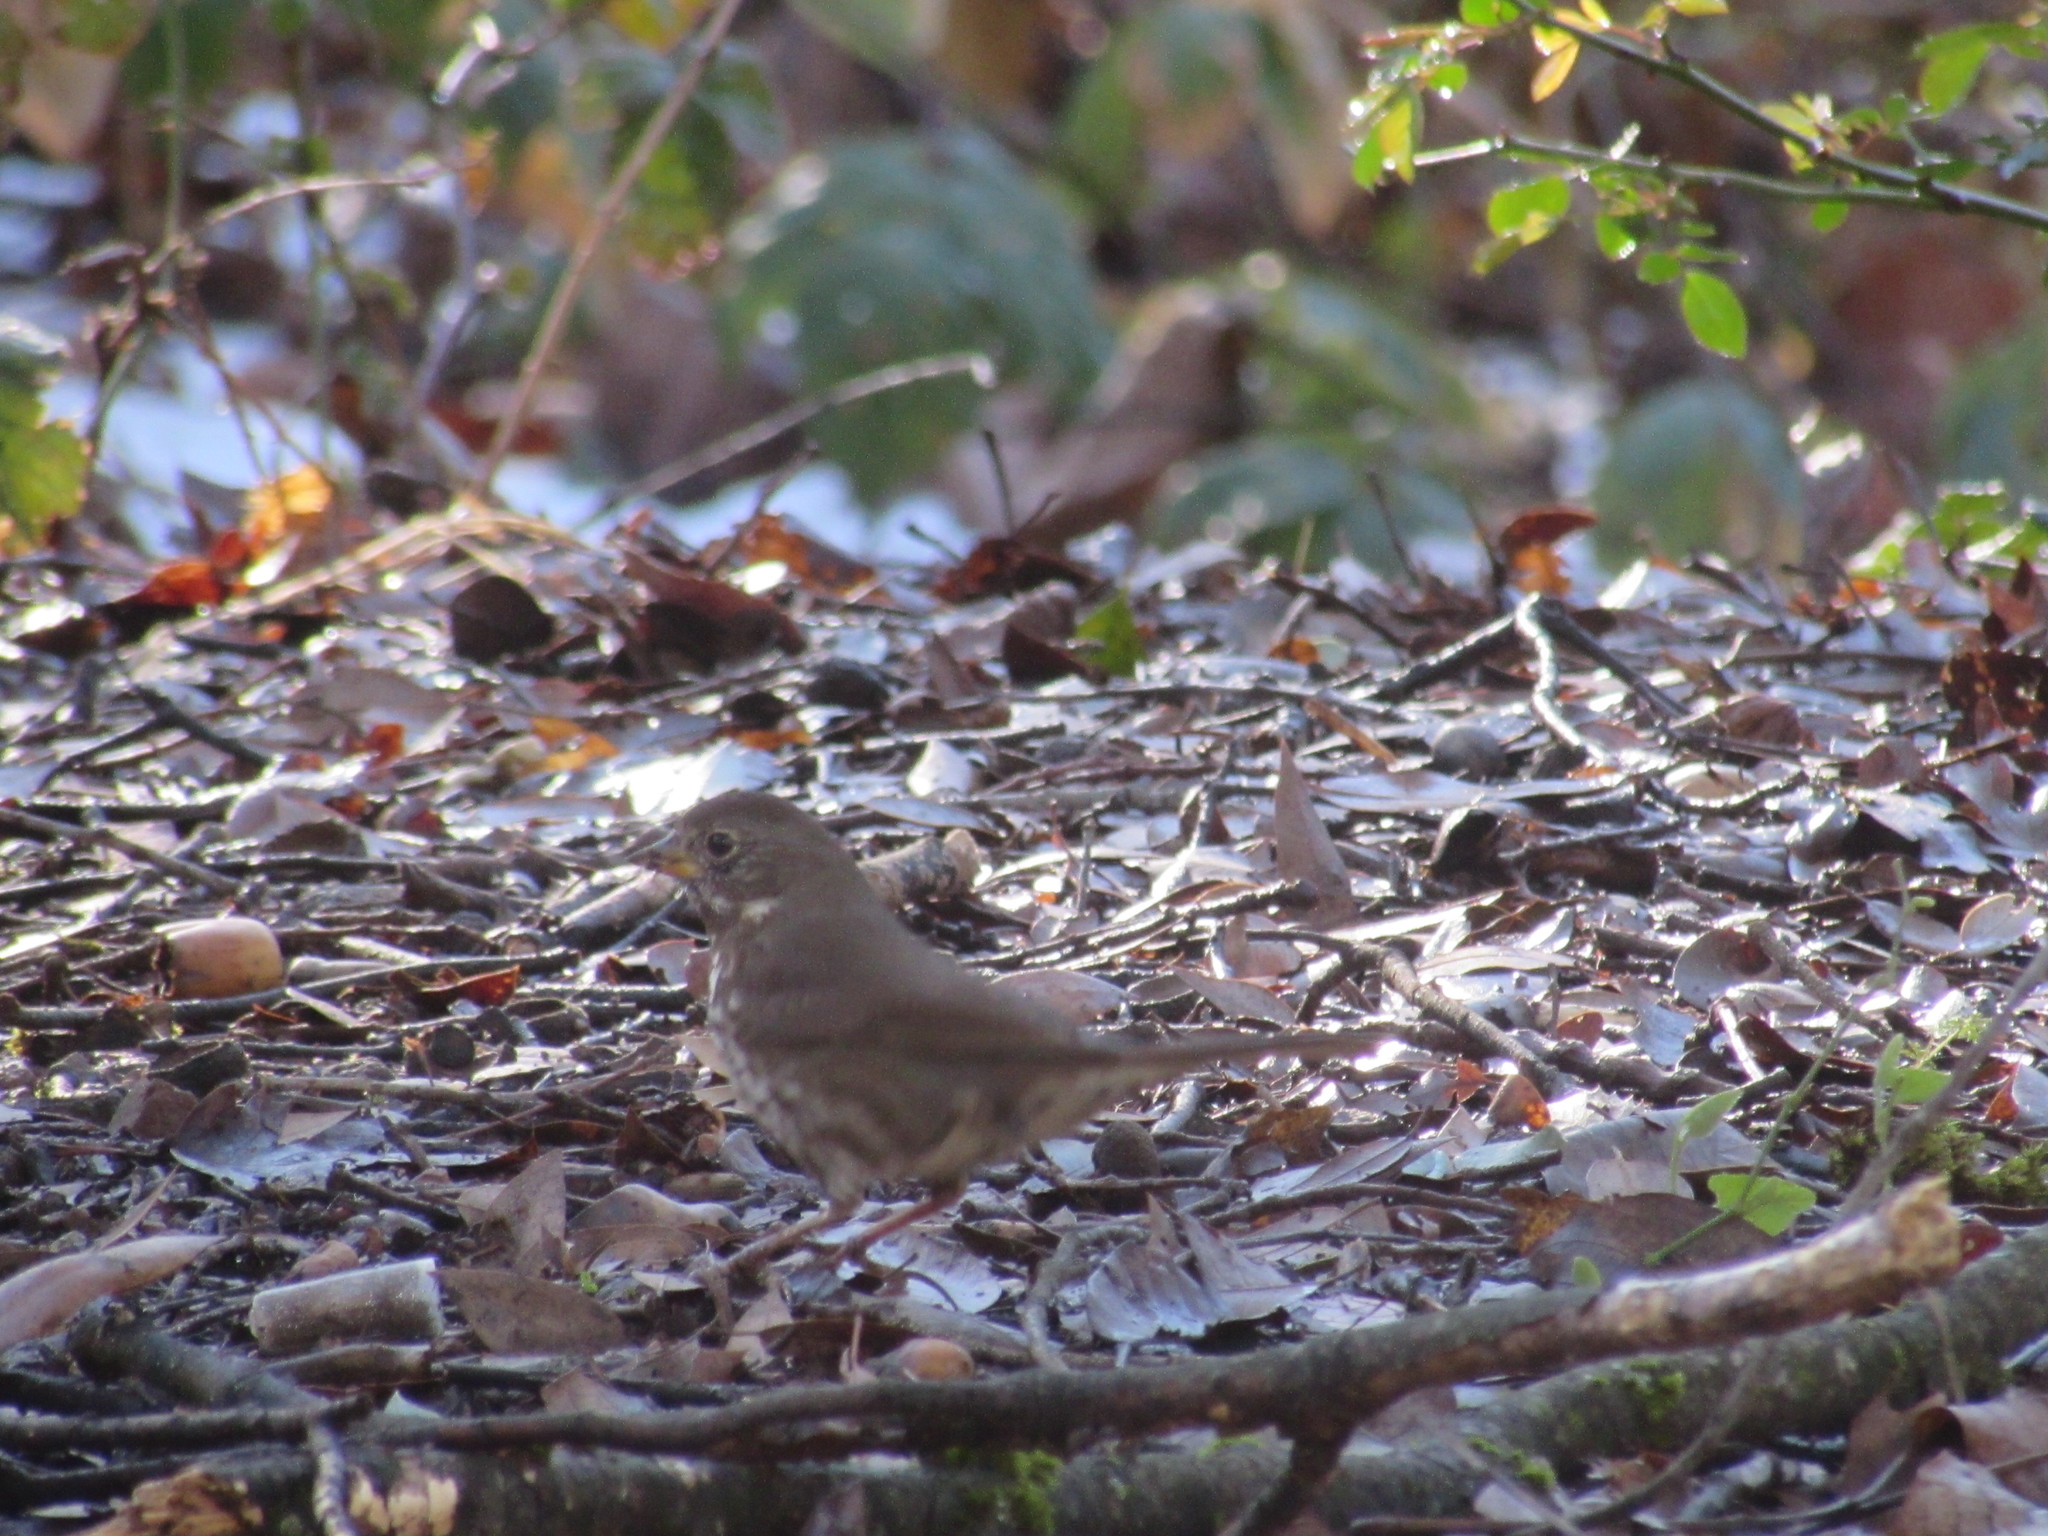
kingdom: Animalia
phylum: Chordata
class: Aves
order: Passeriformes
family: Passerellidae
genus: Passerella
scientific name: Passerella iliaca
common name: Fox sparrow
